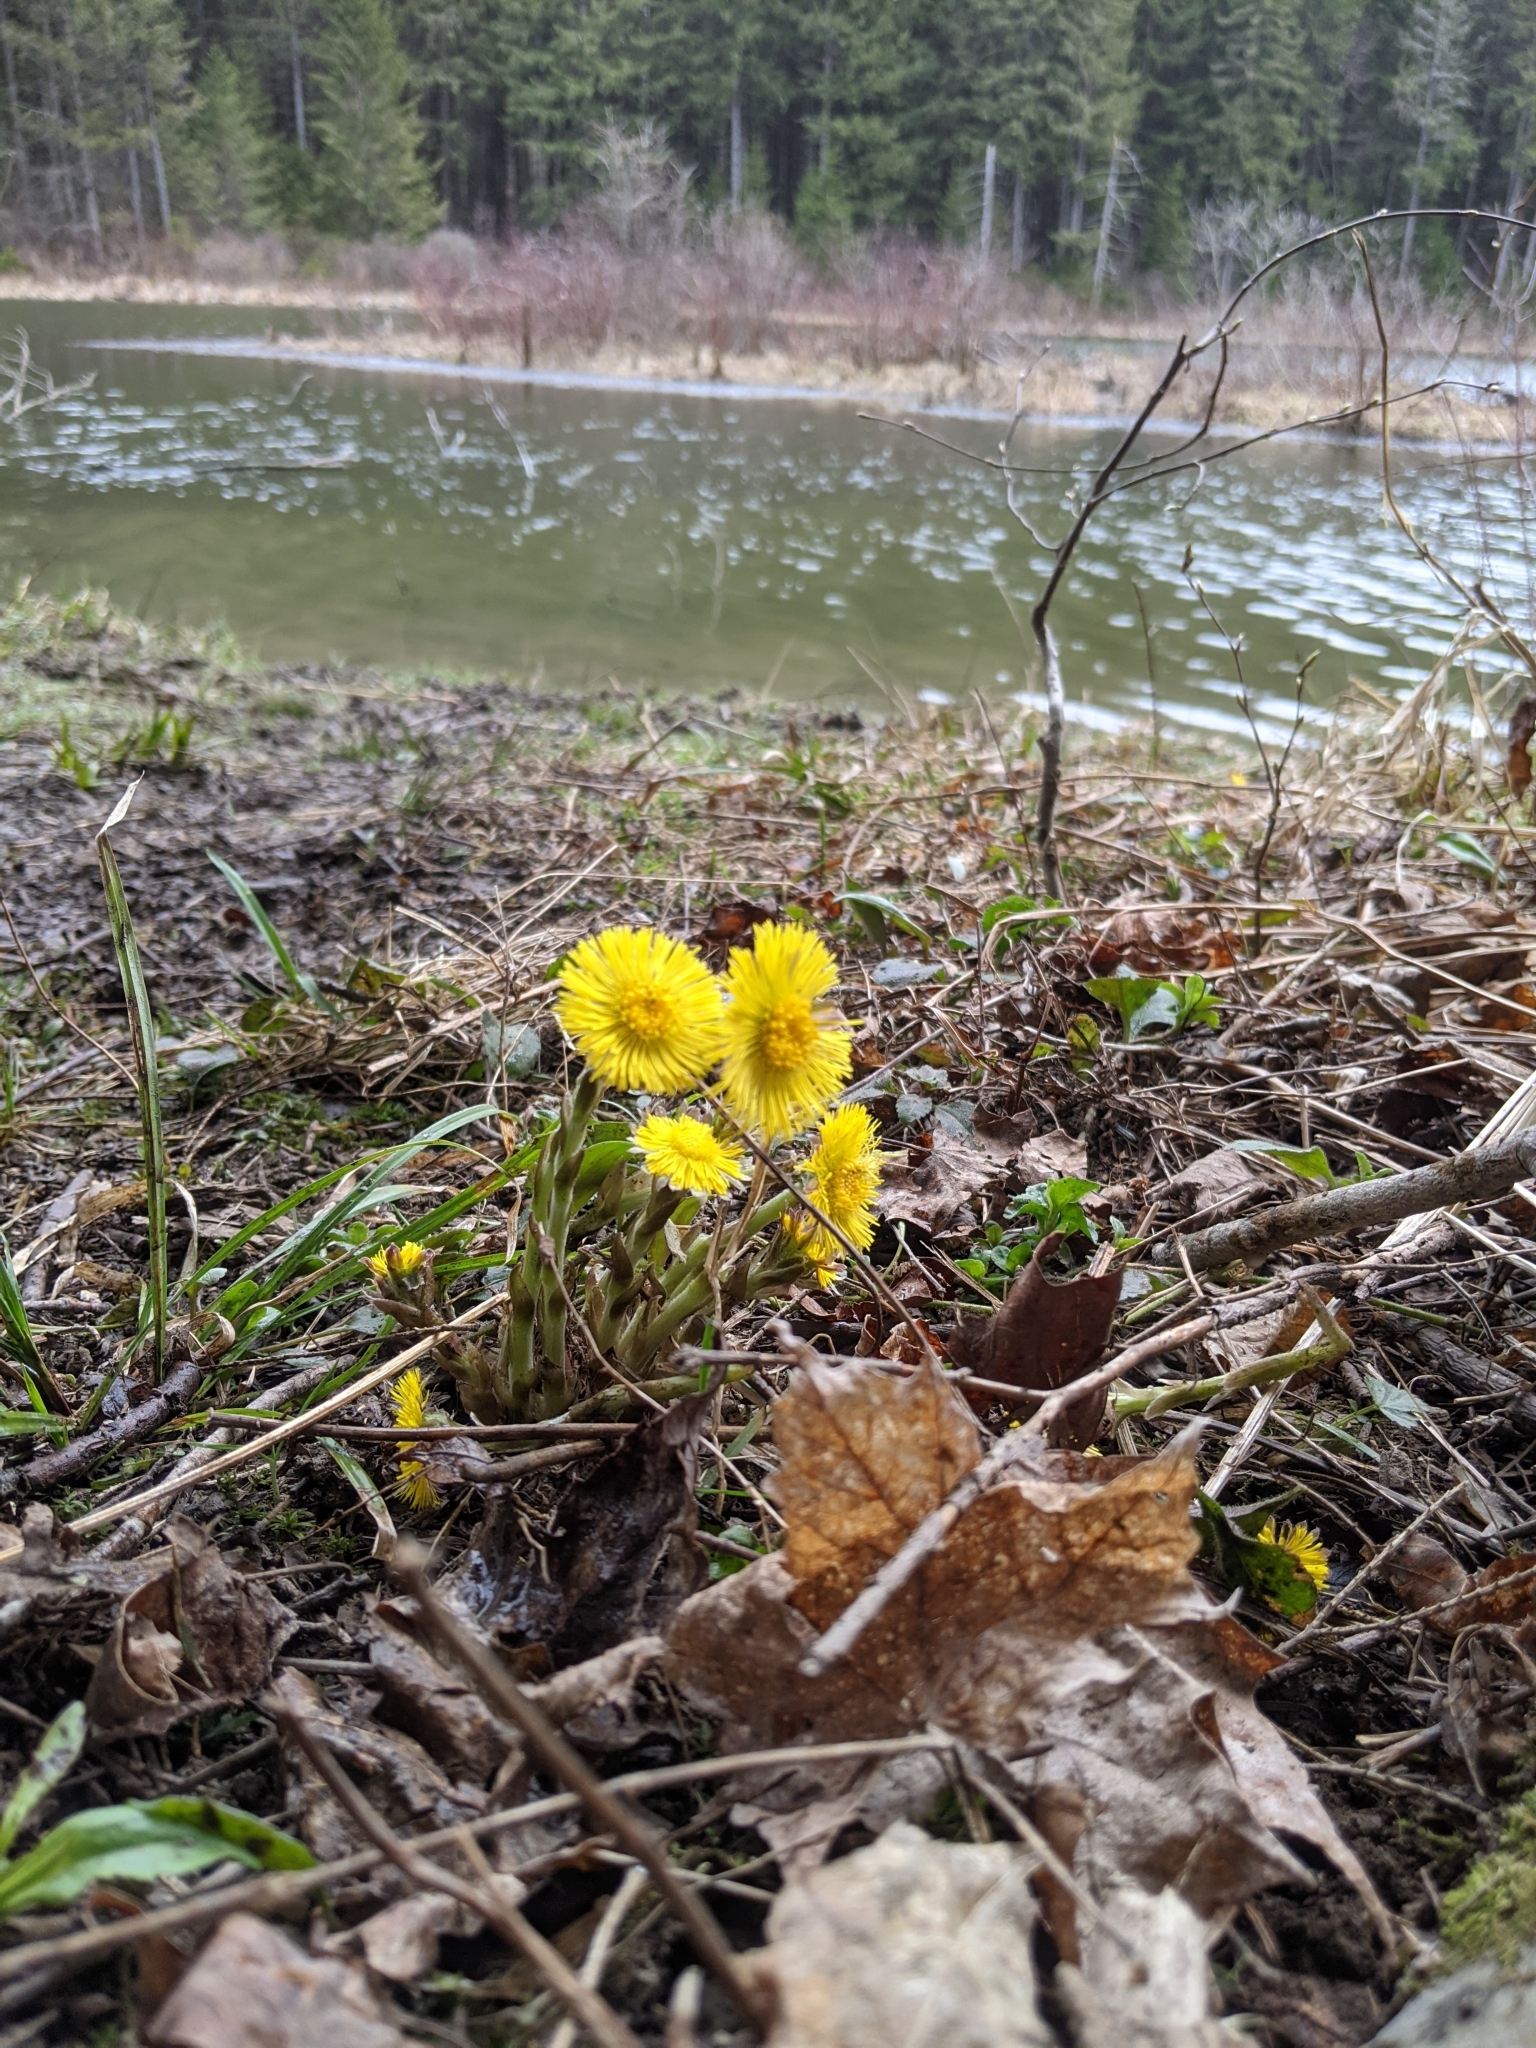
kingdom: Plantae
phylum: Tracheophyta
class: Magnoliopsida
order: Asterales
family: Asteraceae
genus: Tussilago
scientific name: Tussilago farfara
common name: Coltsfoot
